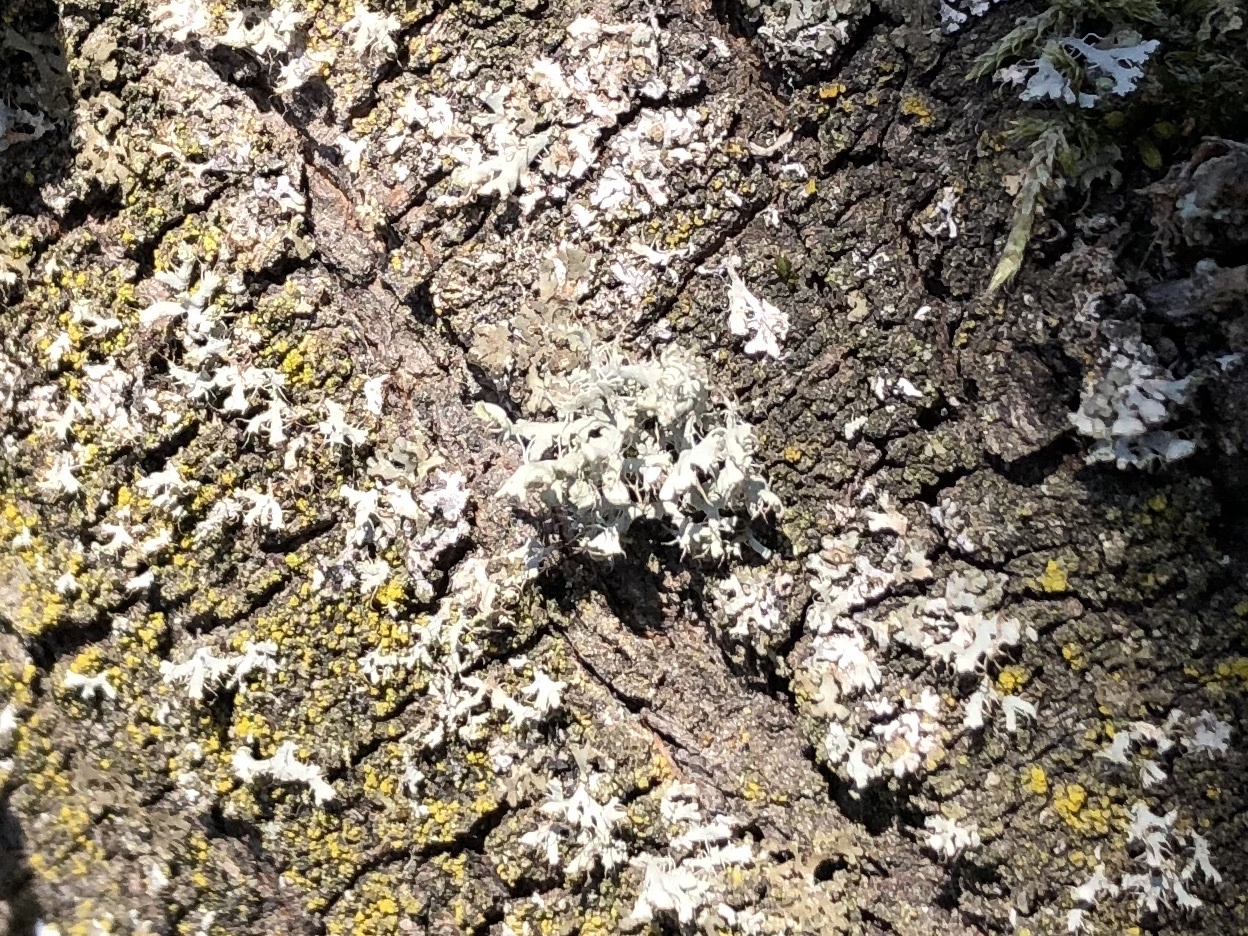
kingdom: Fungi
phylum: Ascomycota
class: Lecanoromycetes
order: Caliciales
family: Physciaceae
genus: Physcia
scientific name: Physcia adscendens
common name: Hooded rosette lichen
